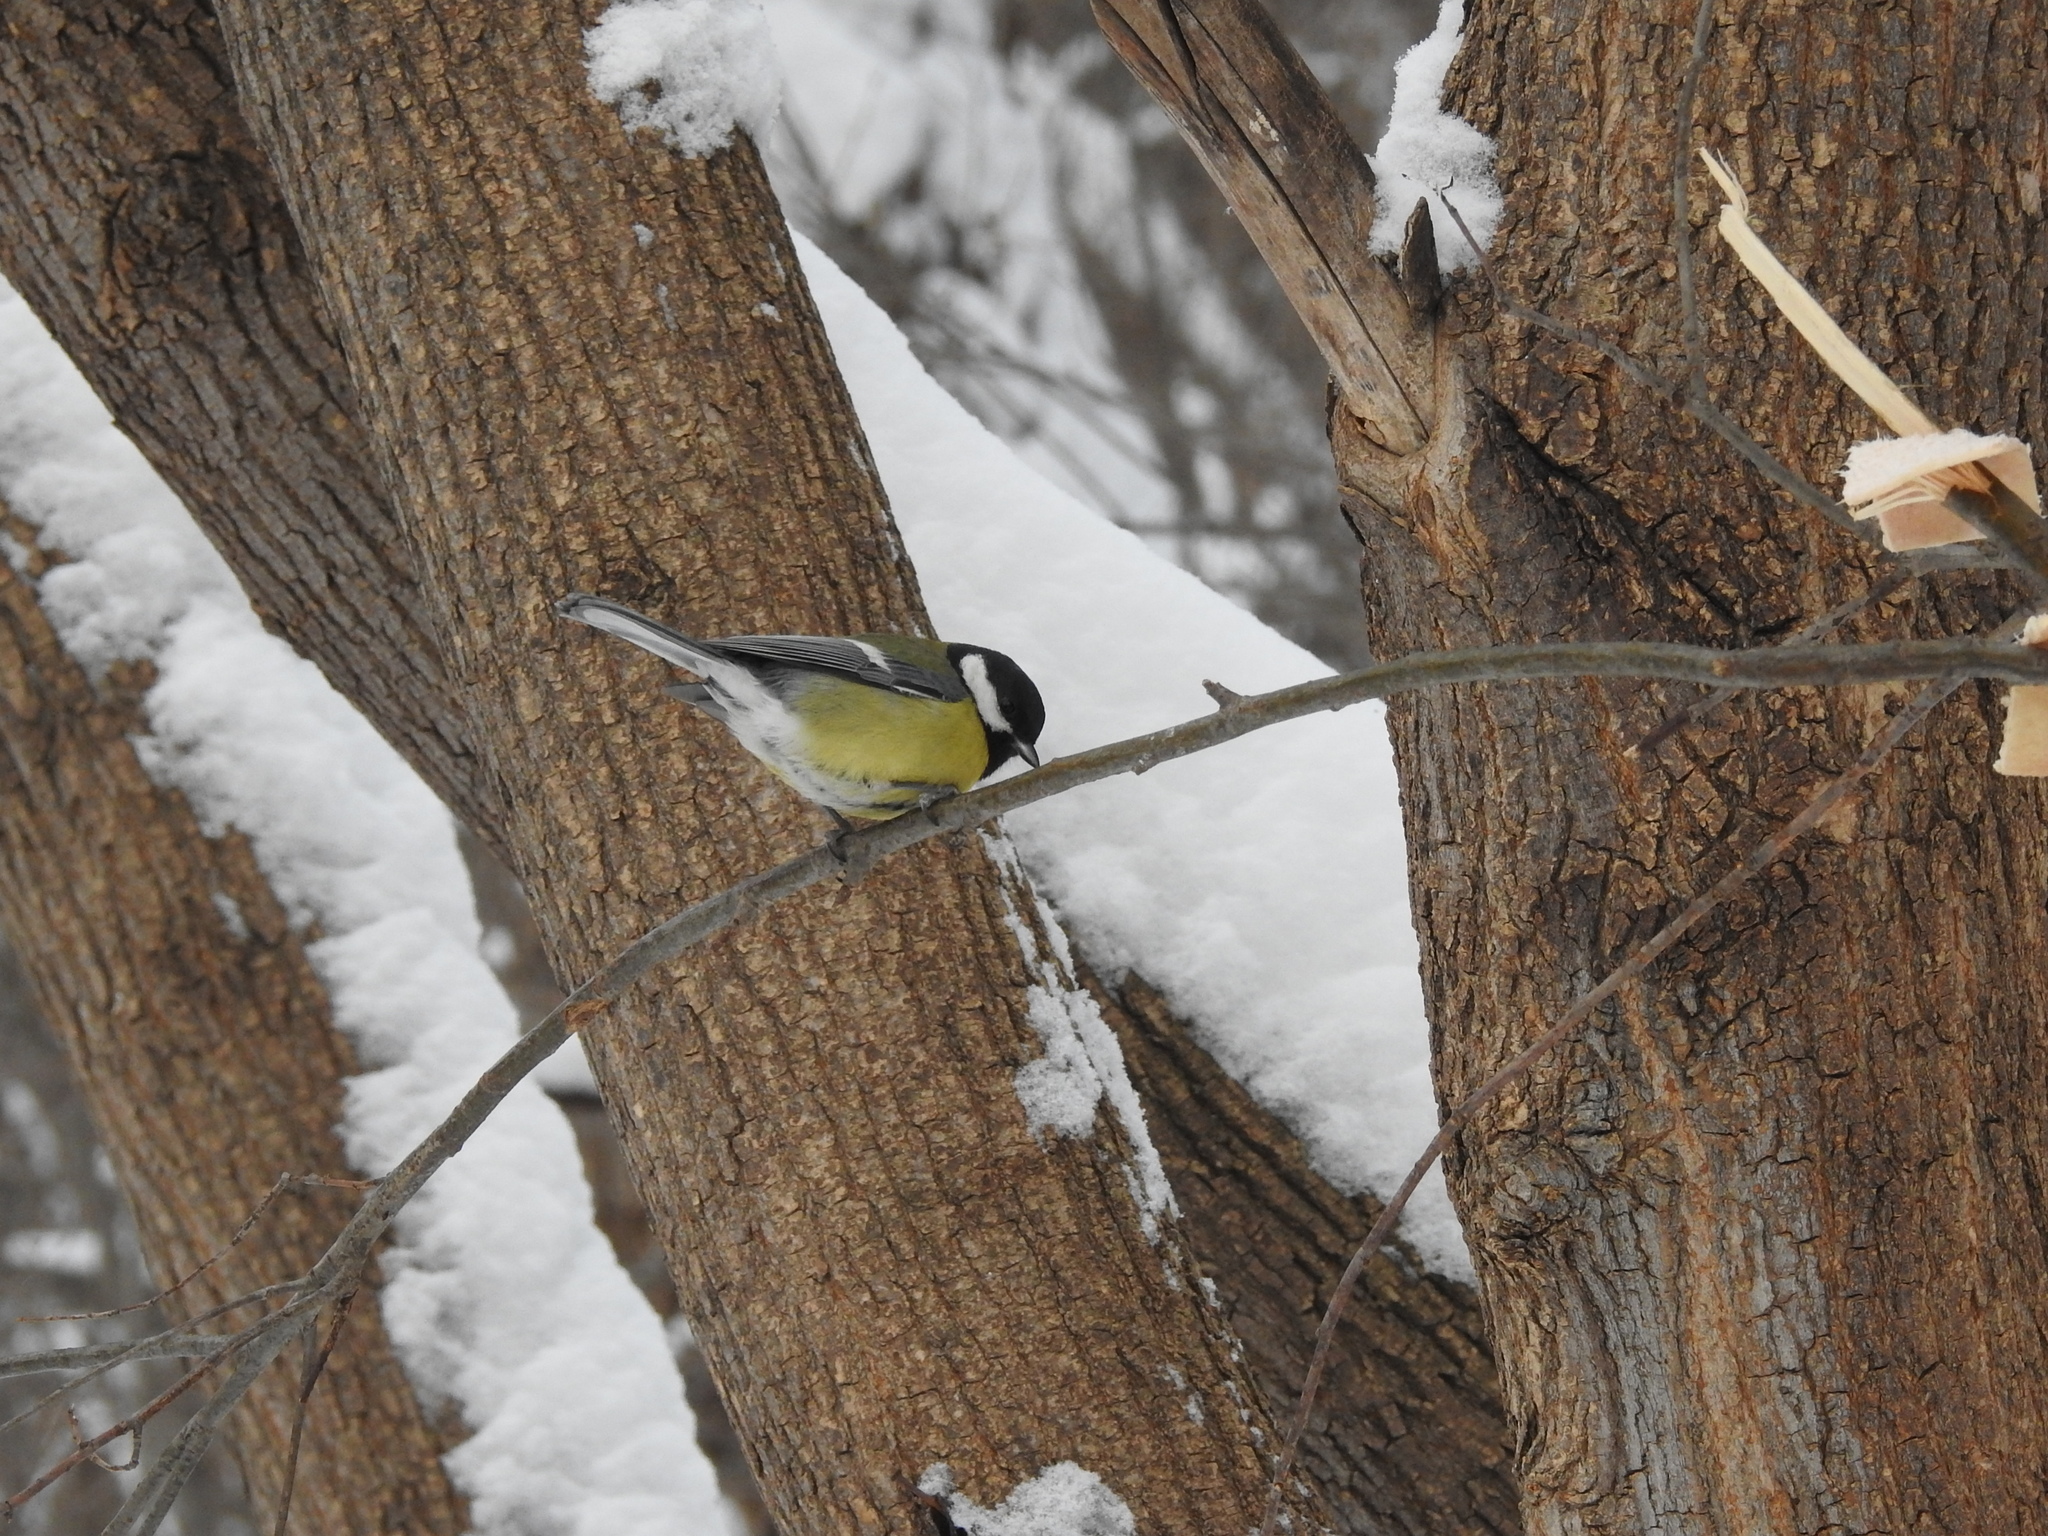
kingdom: Animalia
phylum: Chordata
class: Aves
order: Passeriformes
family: Paridae
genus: Parus
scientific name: Parus major
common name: Great tit
